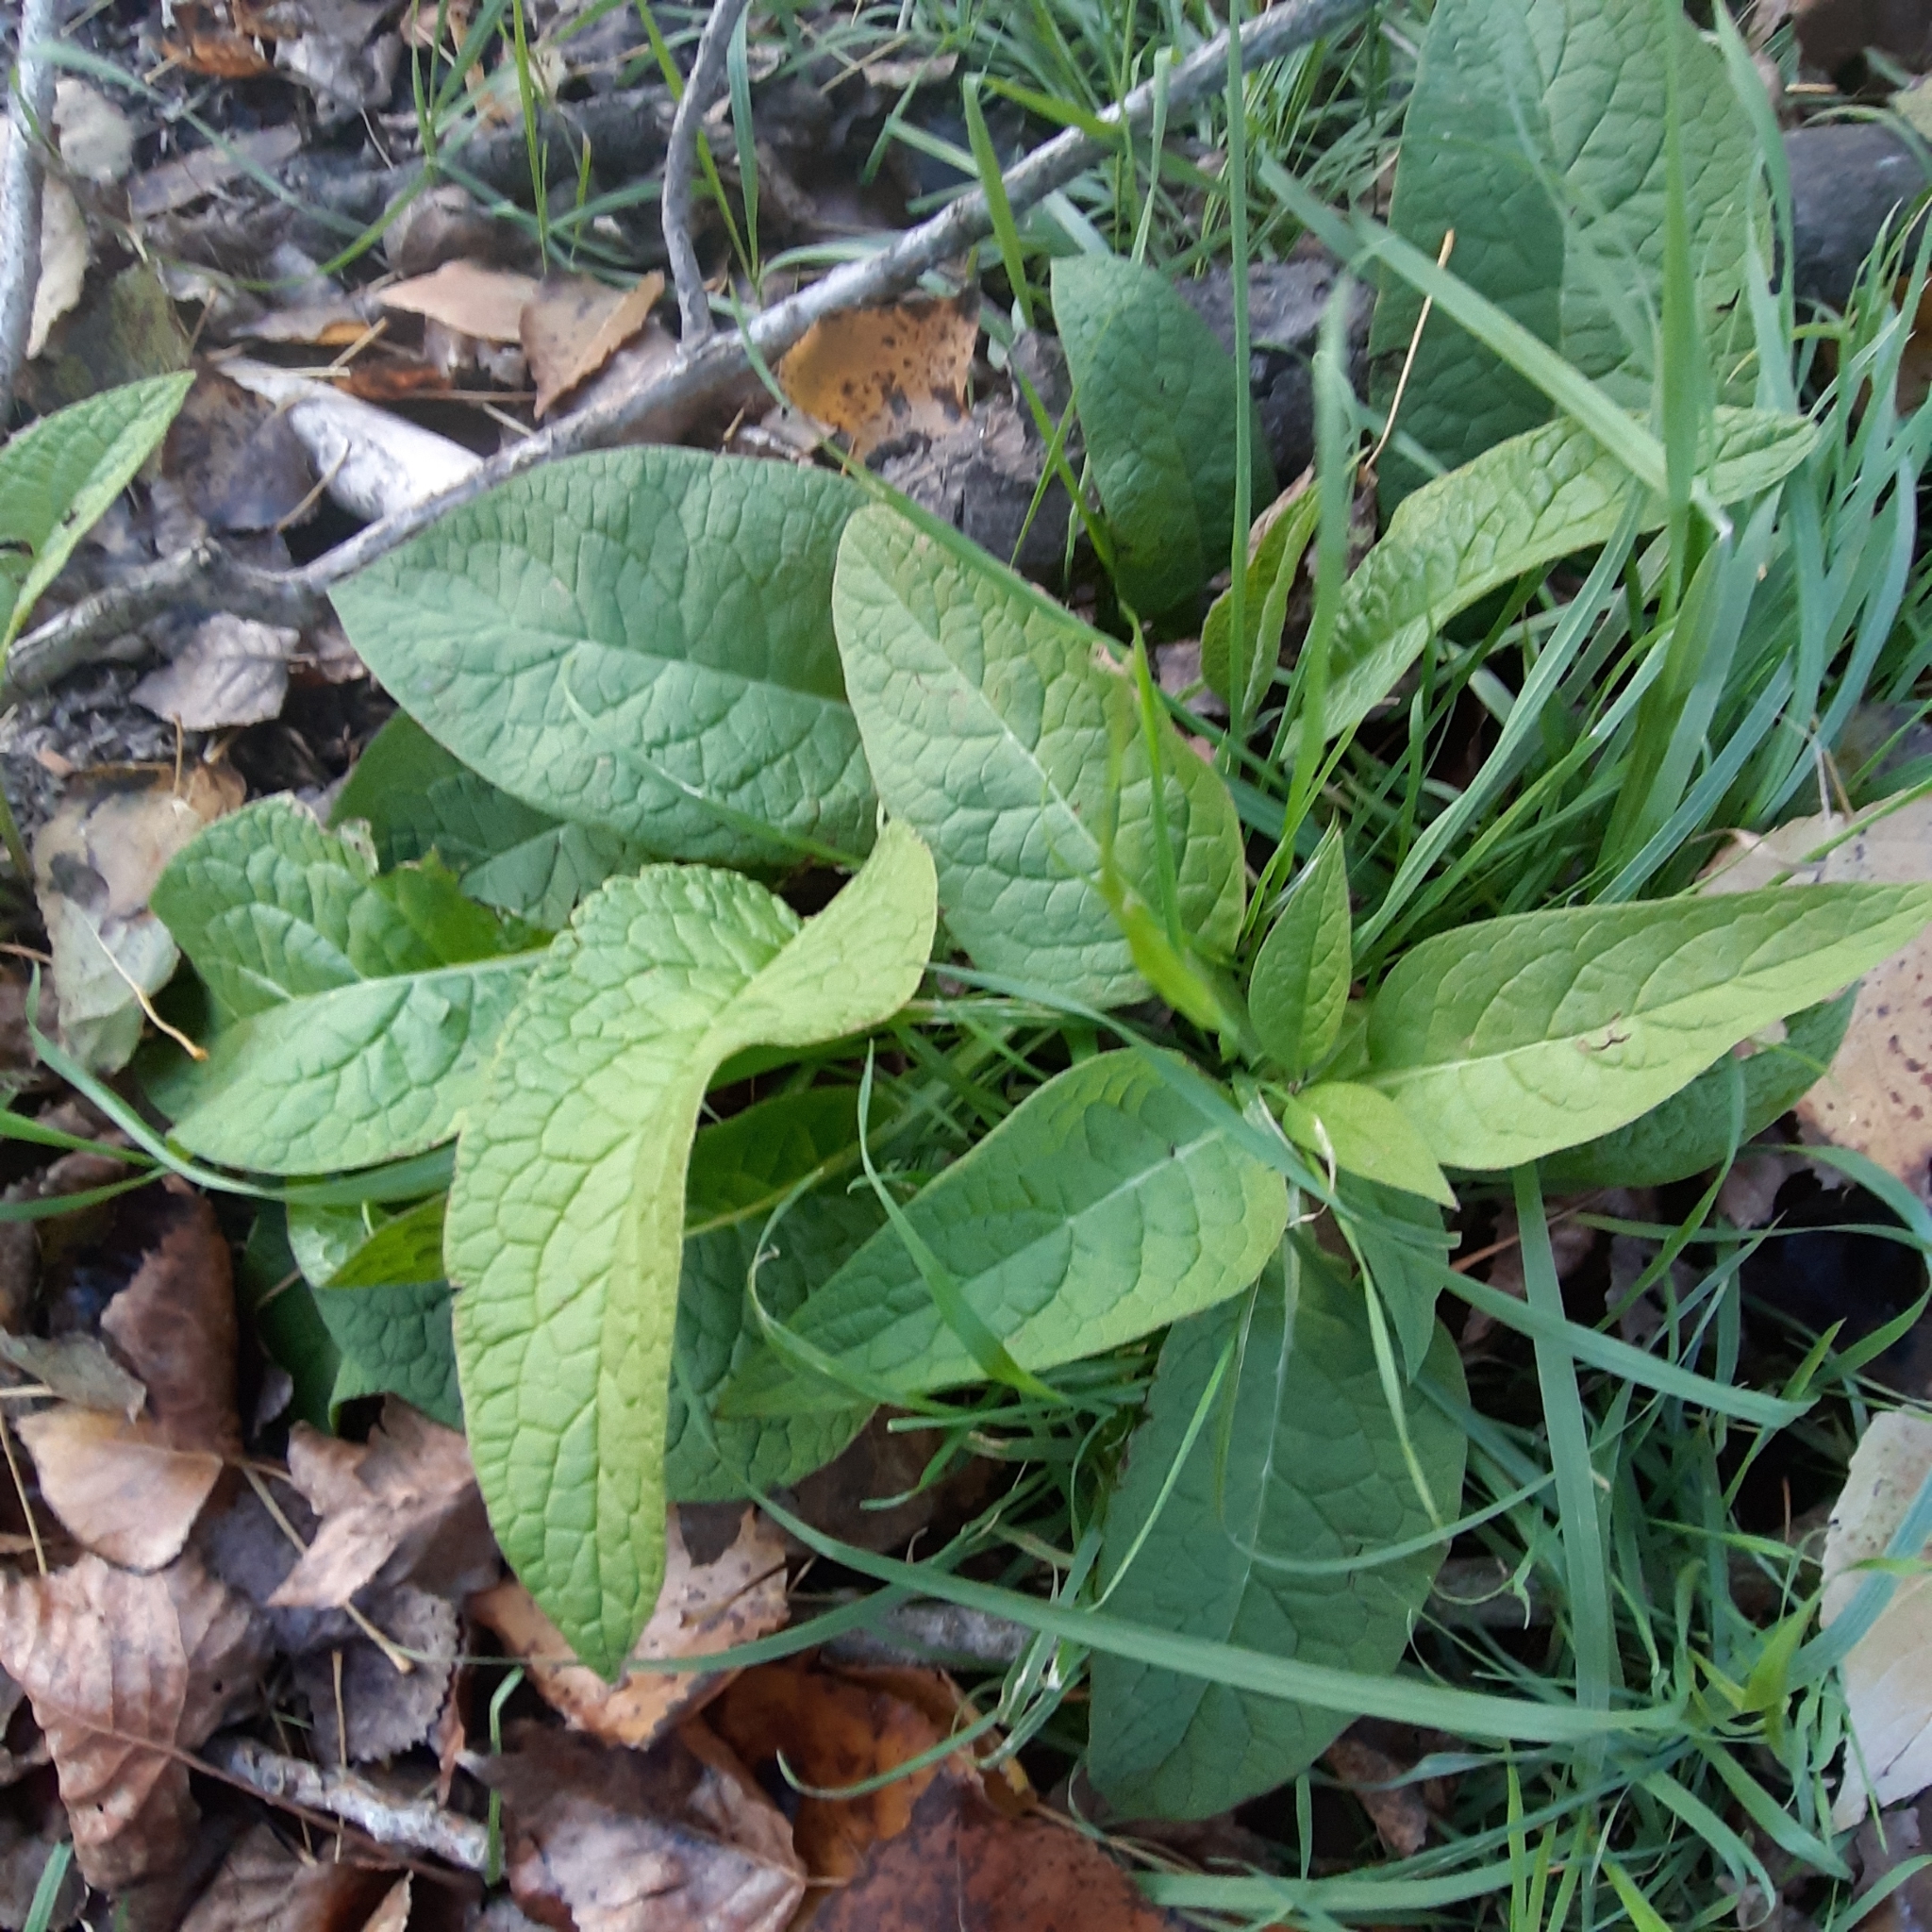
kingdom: Plantae
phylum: Tracheophyta
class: Magnoliopsida
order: Boraginales
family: Boraginaceae
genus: Symphytum
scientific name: Symphytum officinale
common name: Common comfrey
